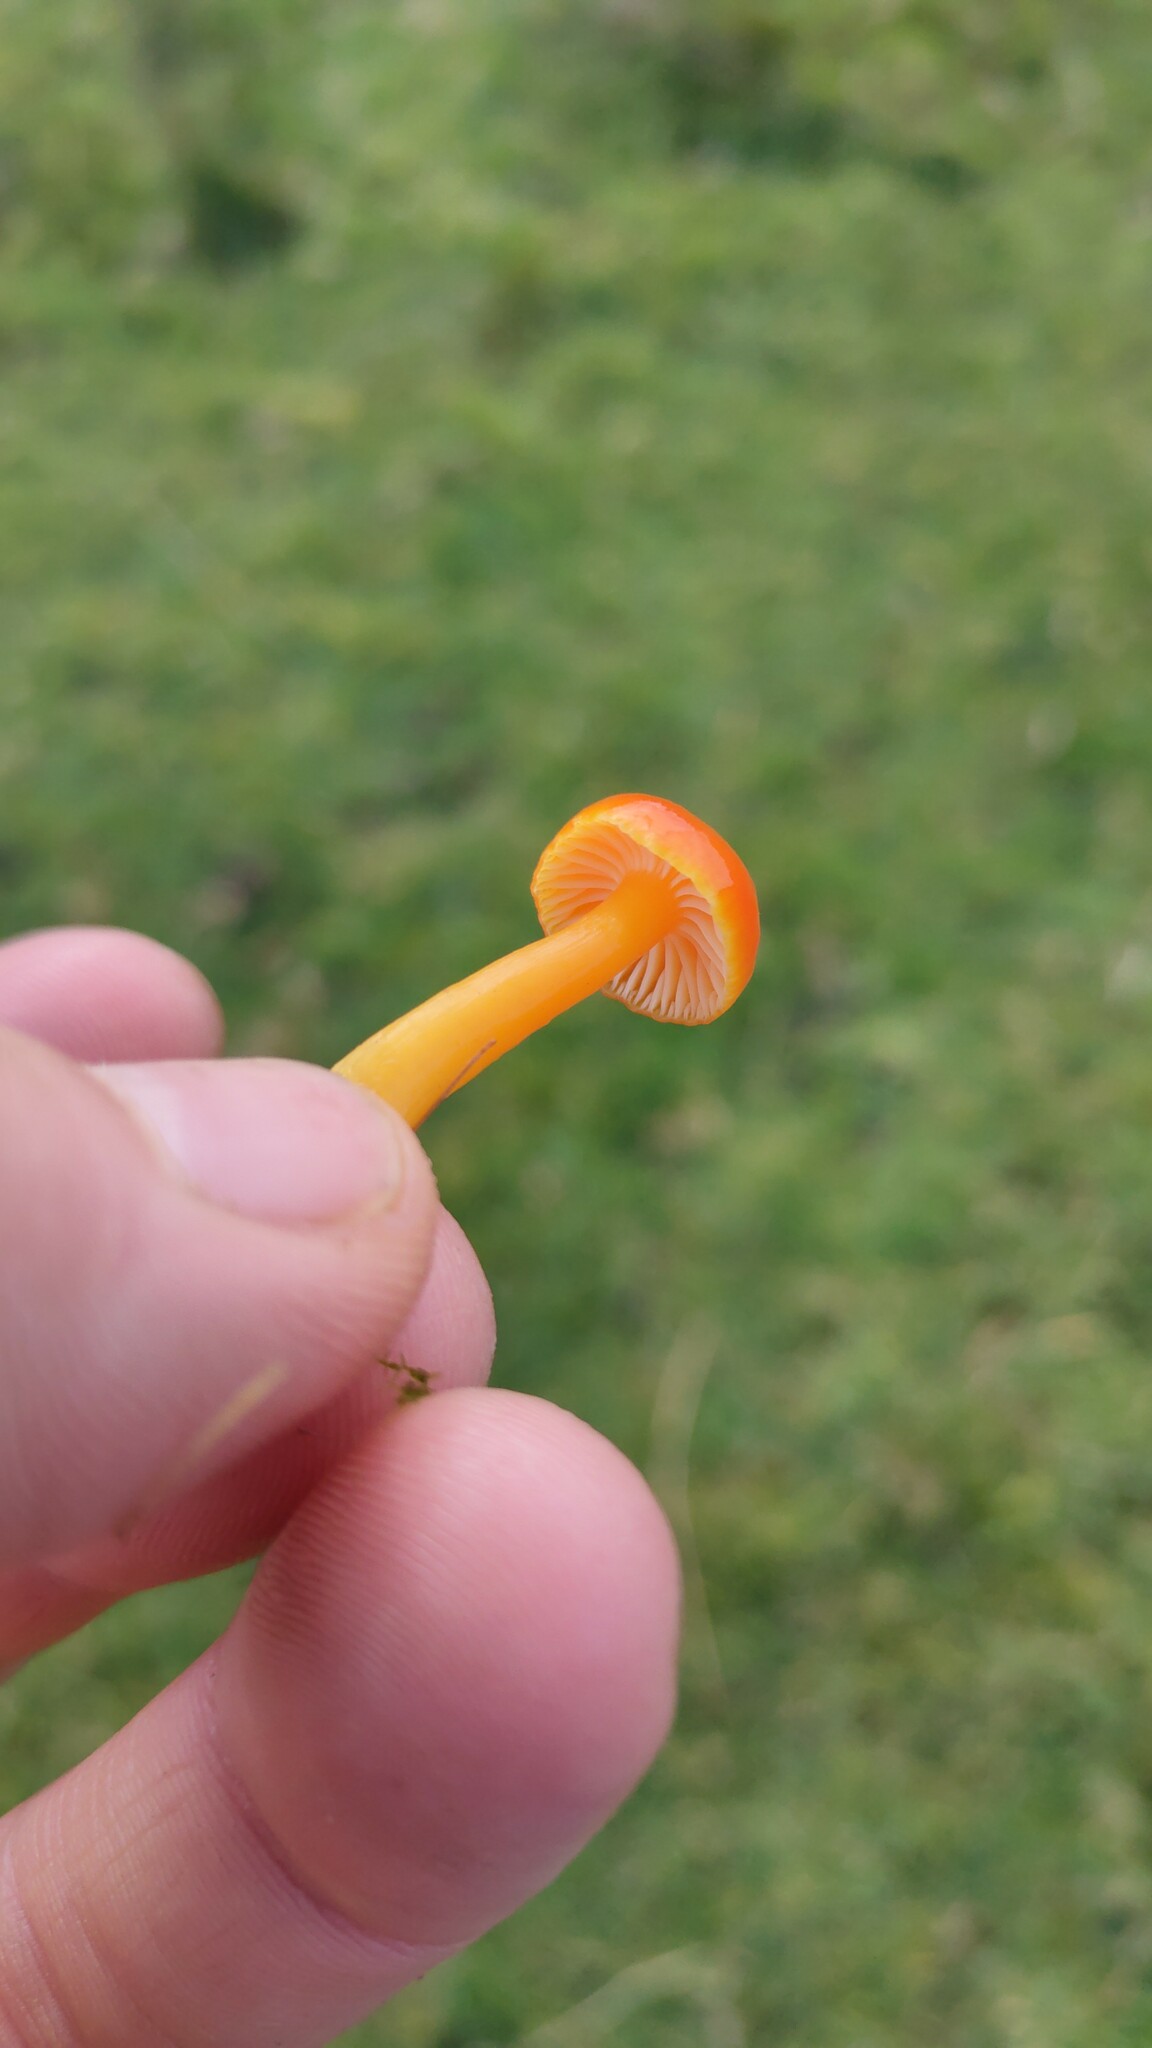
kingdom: Fungi
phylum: Basidiomycota
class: Agaricomycetes
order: Agaricales
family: Hygrophoraceae
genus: Hygrocybe
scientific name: Hygrocybe reidii
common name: Honey waxcap
